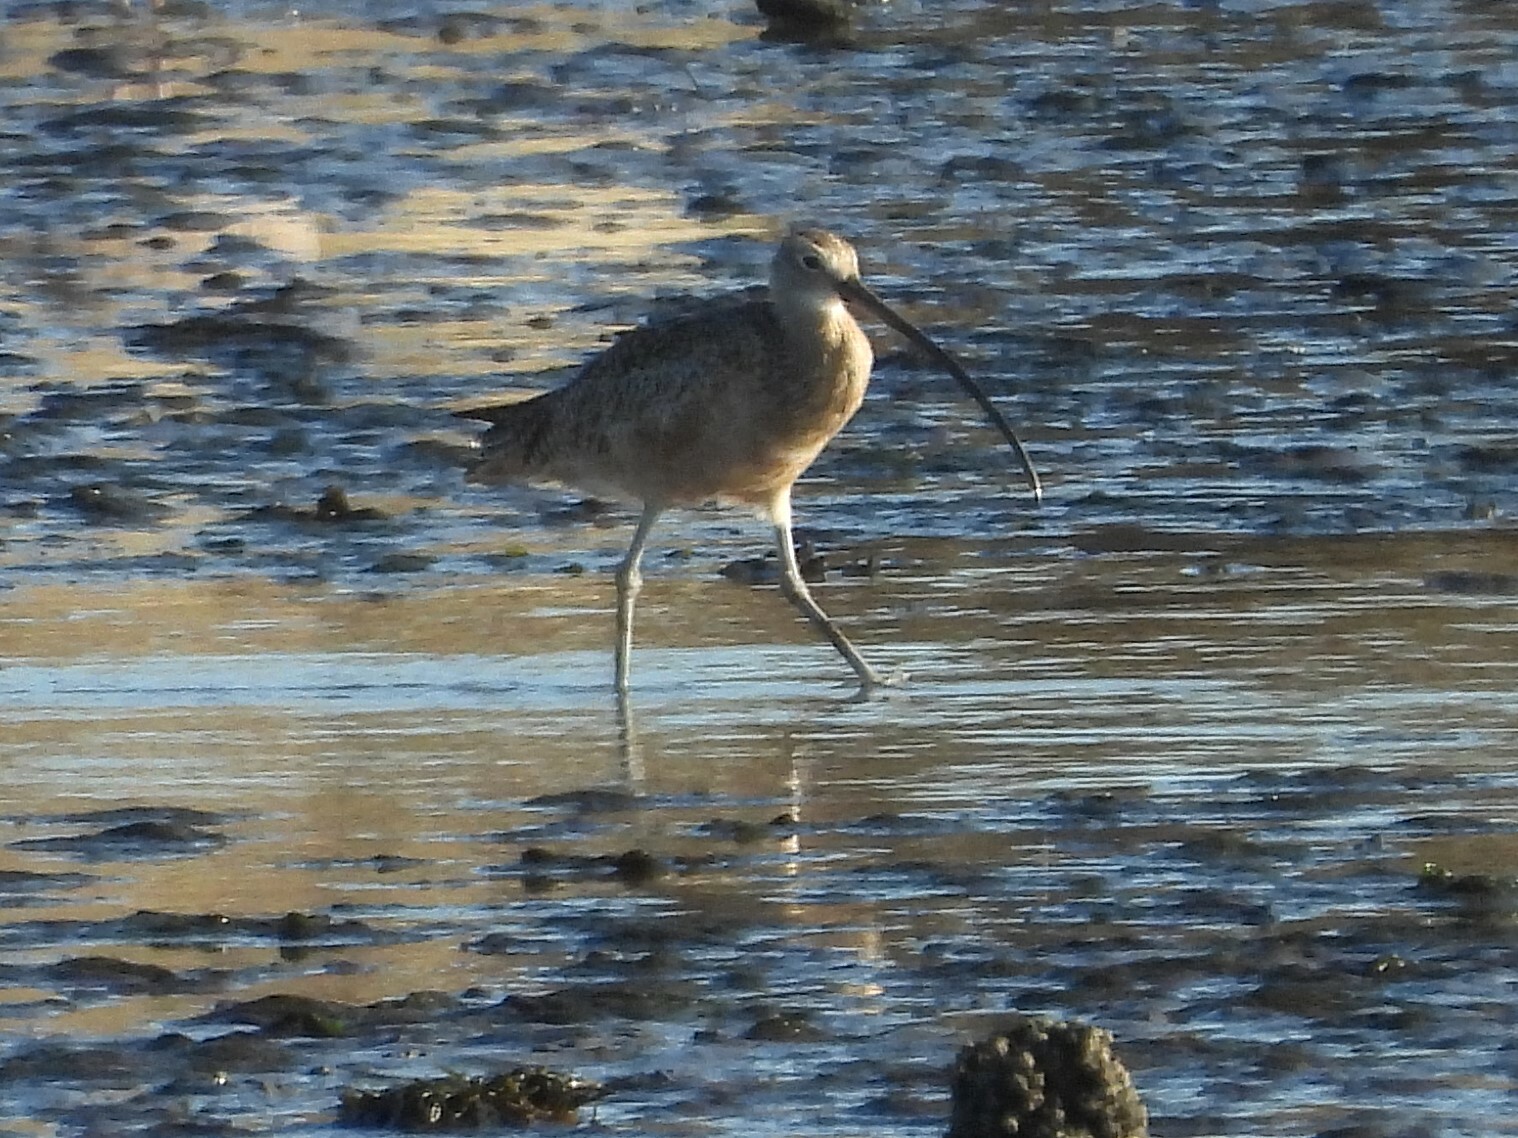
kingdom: Animalia
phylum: Chordata
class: Aves
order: Charadriiformes
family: Scolopacidae
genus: Numenius
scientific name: Numenius americanus
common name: Long-billed curlew
